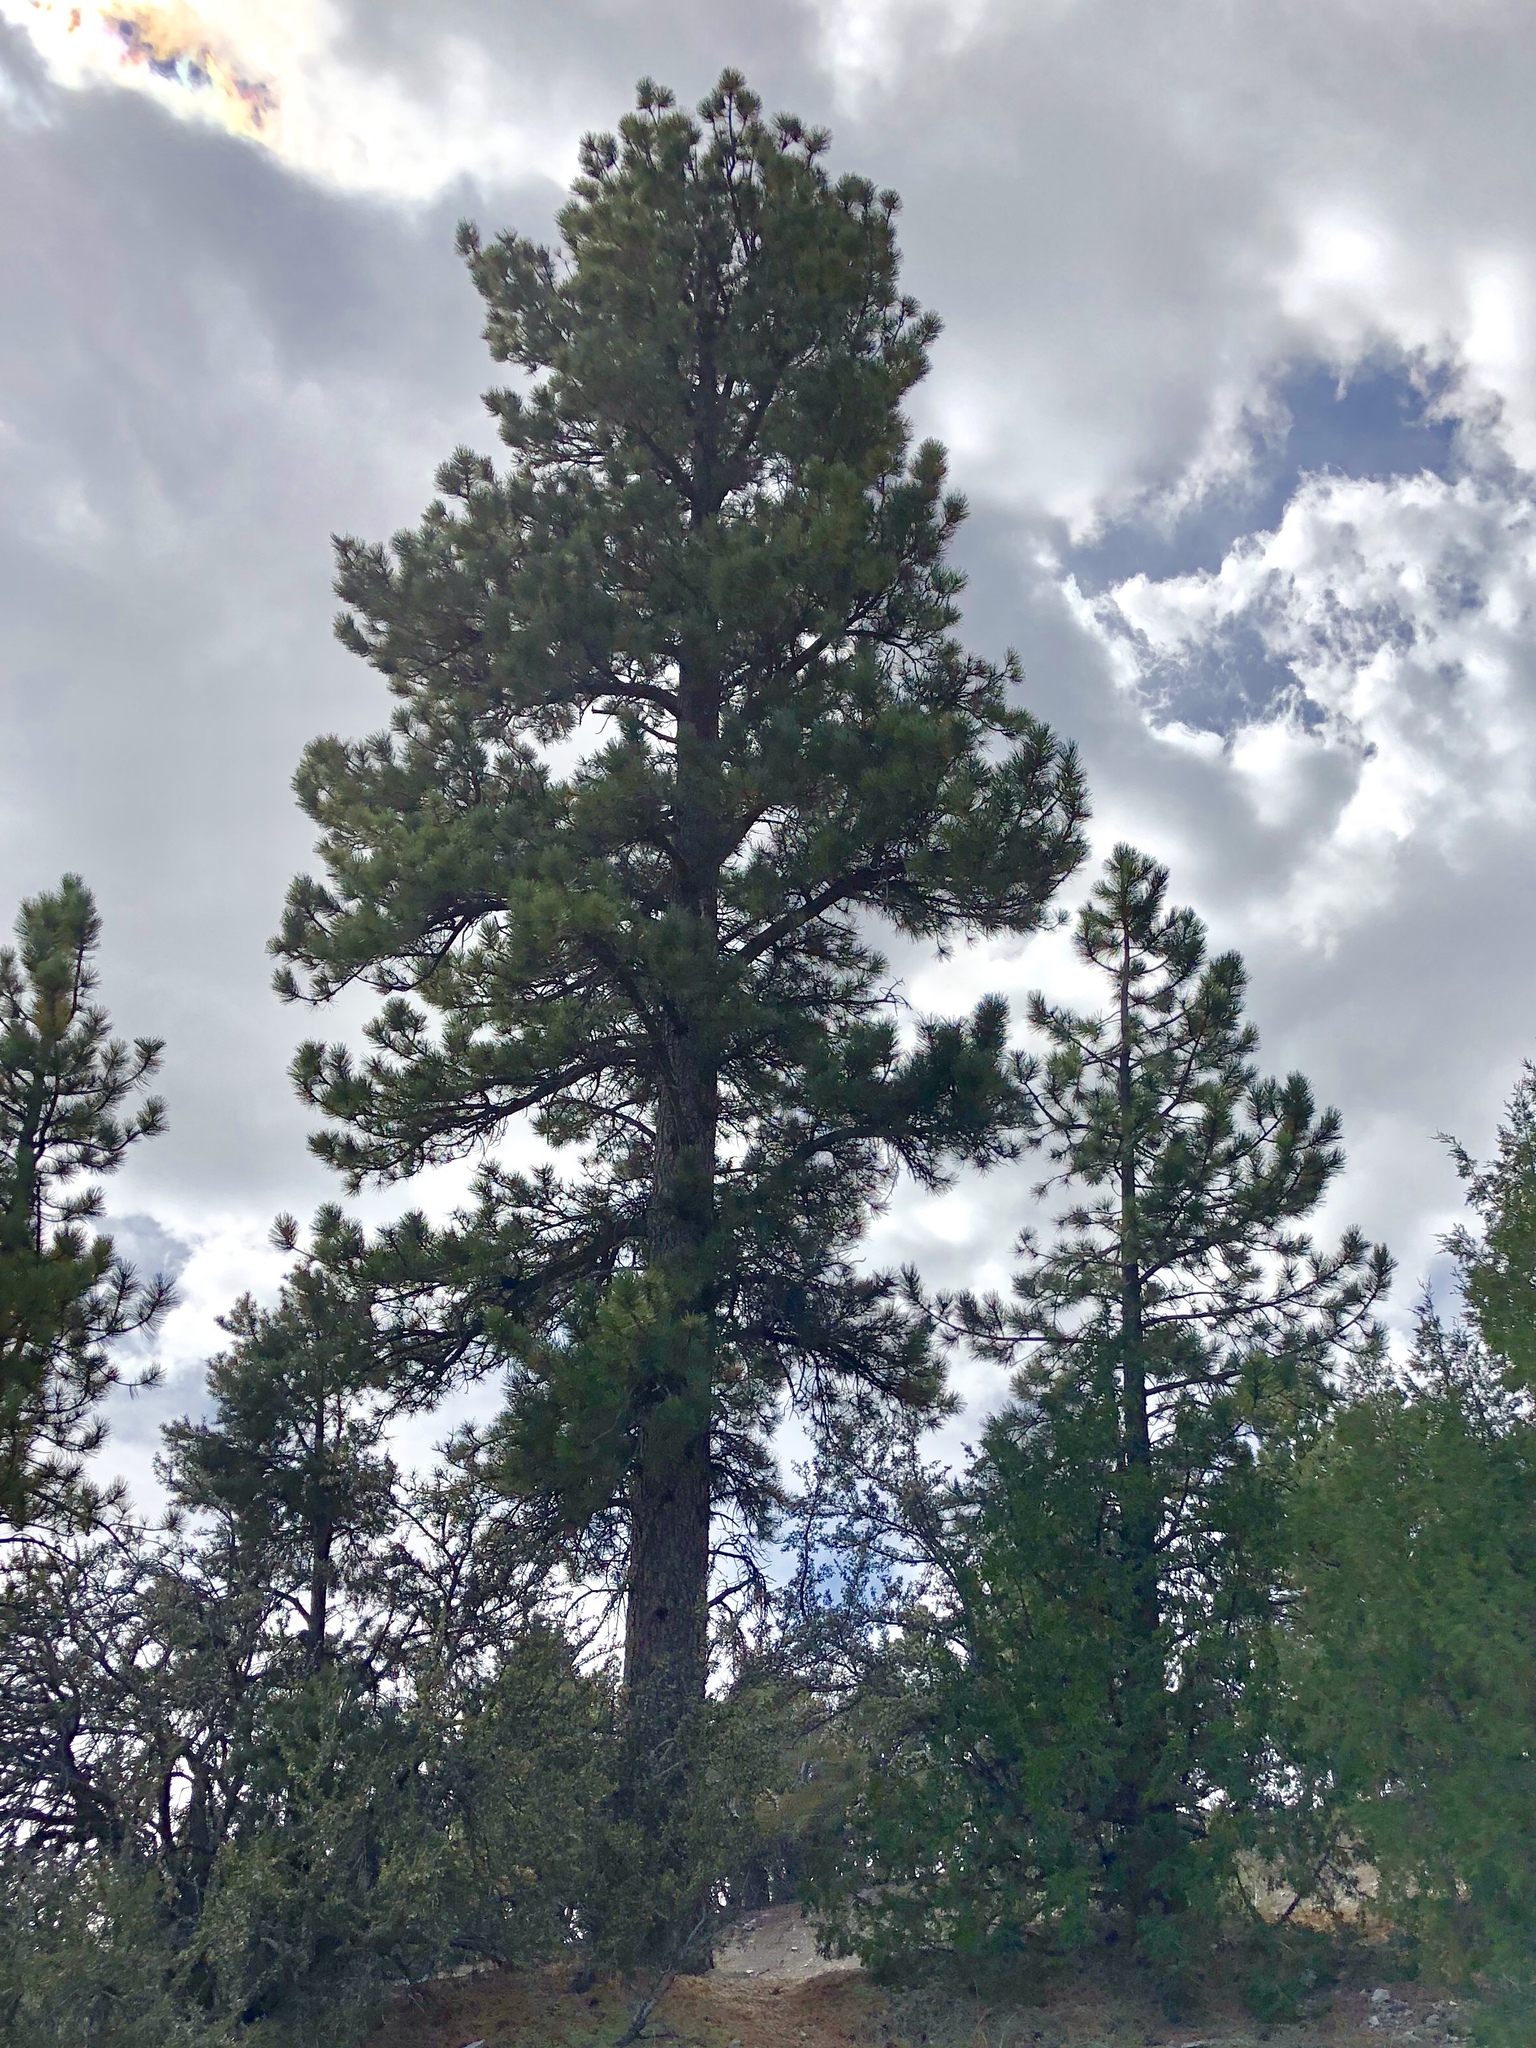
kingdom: Plantae
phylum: Tracheophyta
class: Pinopsida
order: Pinales
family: Pinaceae
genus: Pinus
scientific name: Pinus ponderosa
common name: Western yellow-pine
